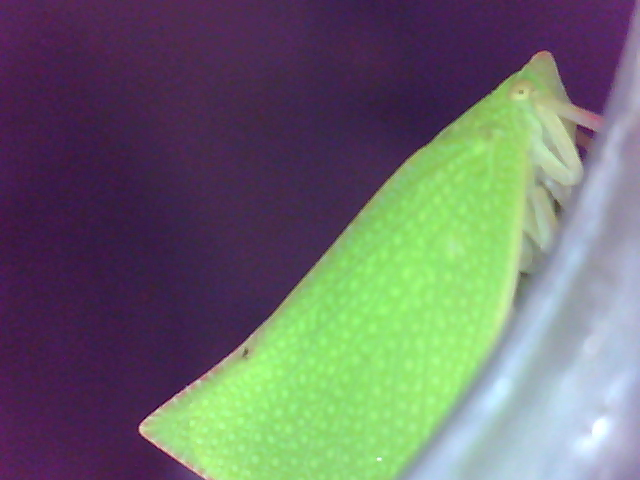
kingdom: Animalia
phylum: Arthropoda
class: Insecta
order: Hemiptera
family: Flatidae
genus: Siphanta
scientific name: Siphanta acuta
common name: Torpedo bug
